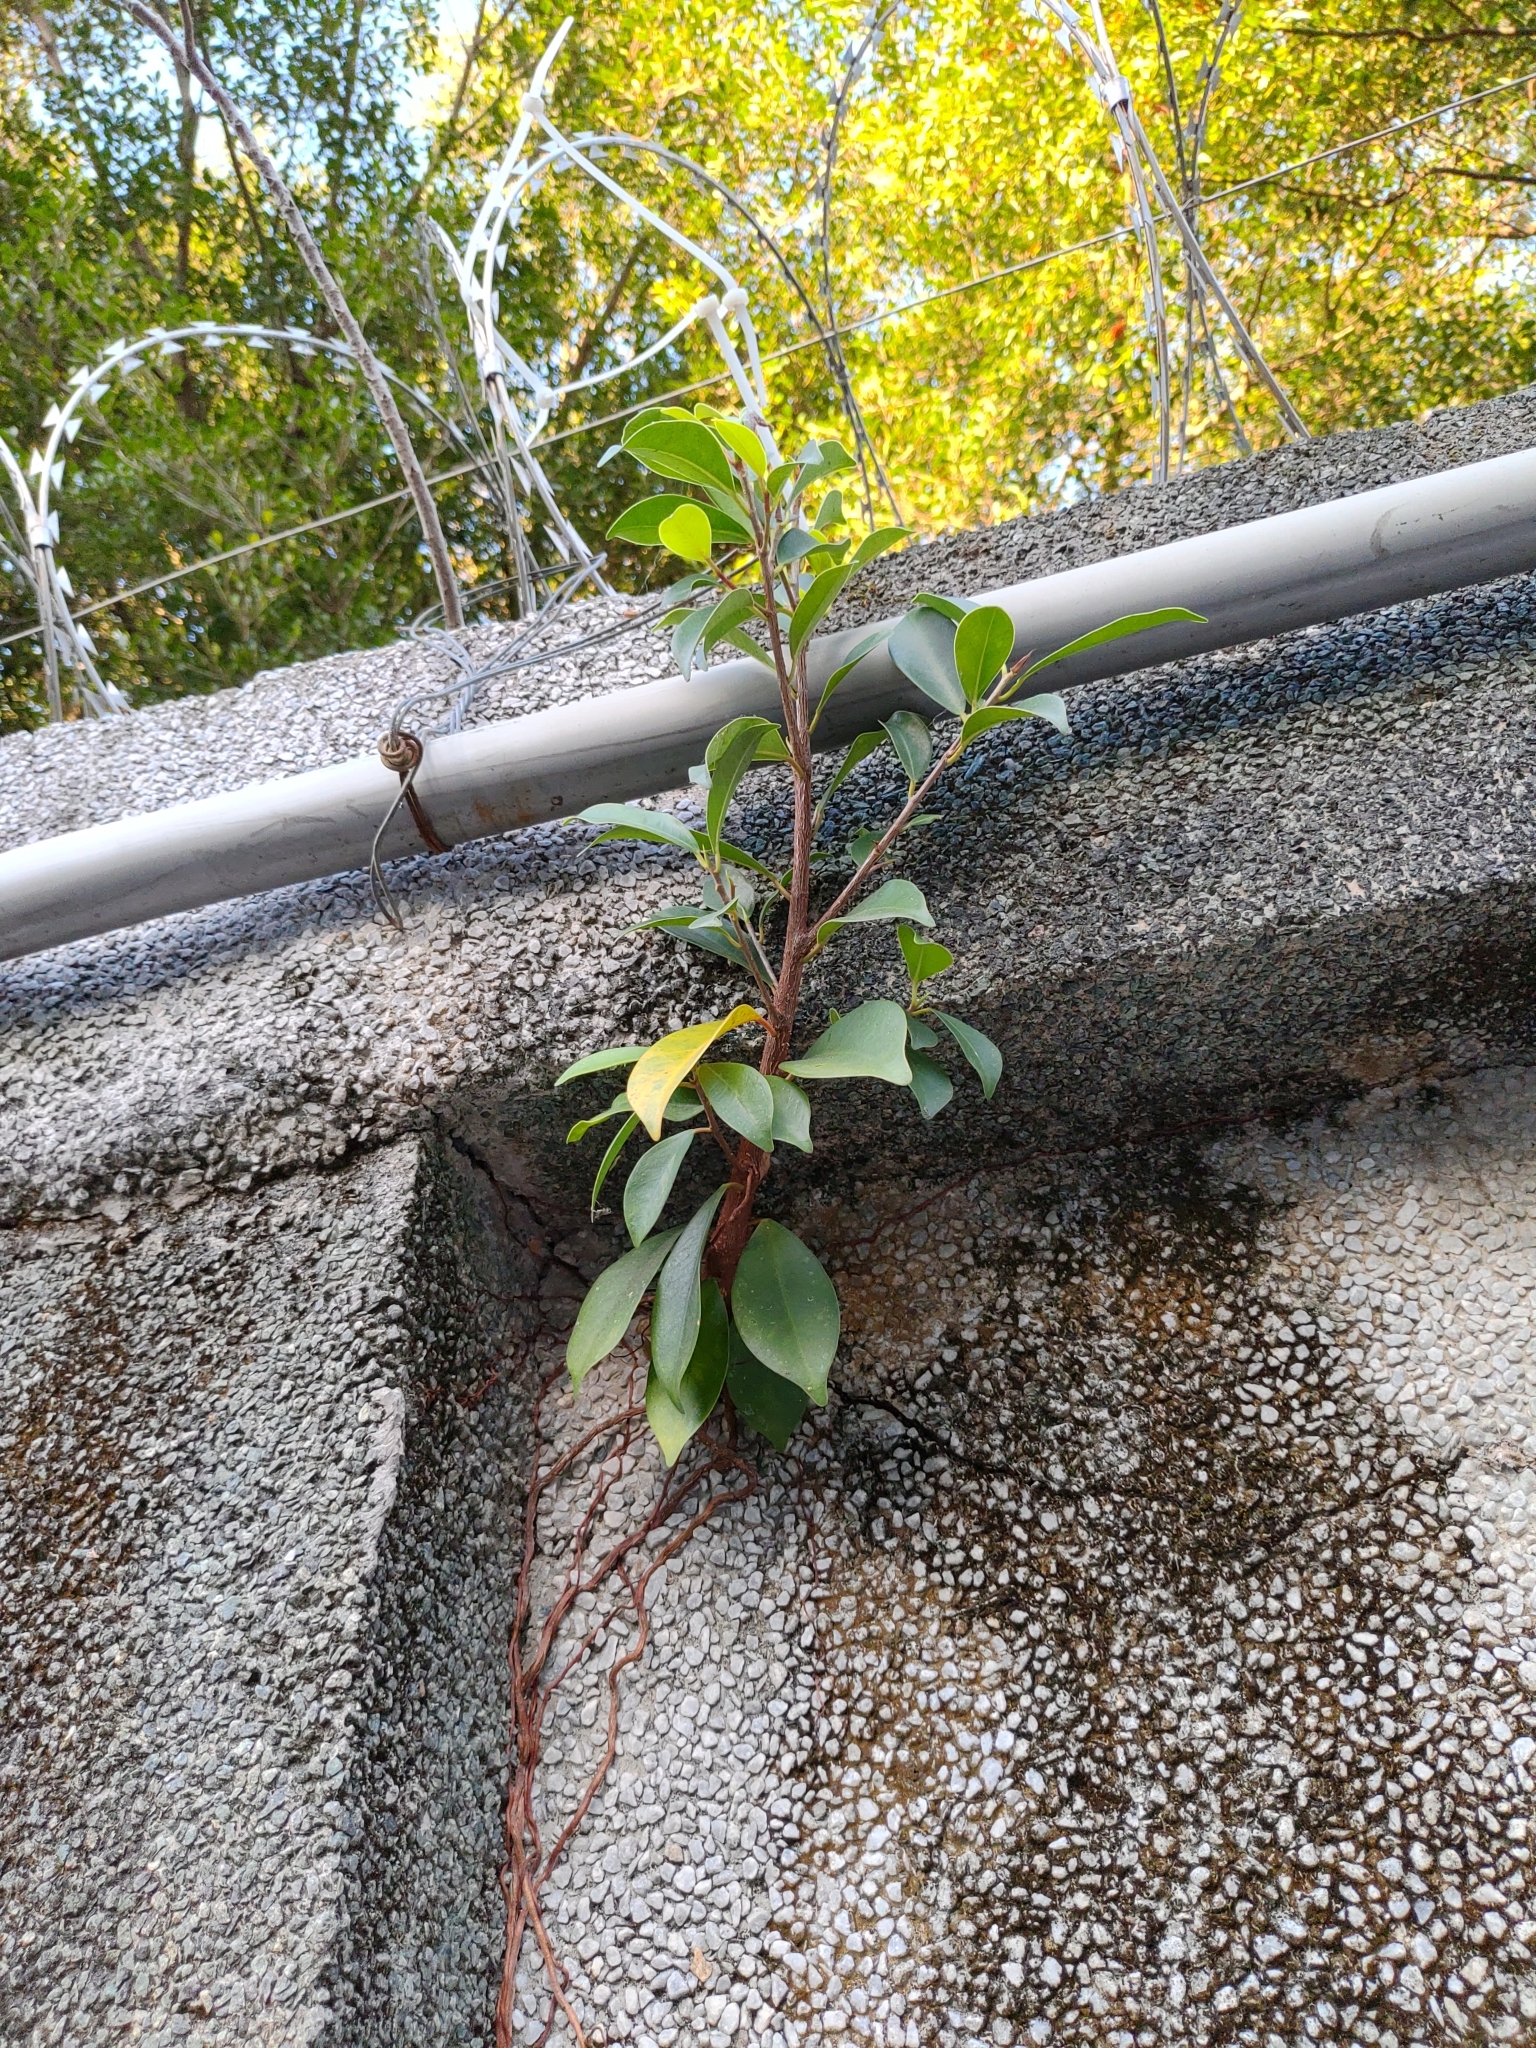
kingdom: Plantae
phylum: Tracheophyta
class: Magnoliopsida
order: Rosales
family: Moraceae
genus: Ficus
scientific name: Ficus microcarpa
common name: Chinese banyan
